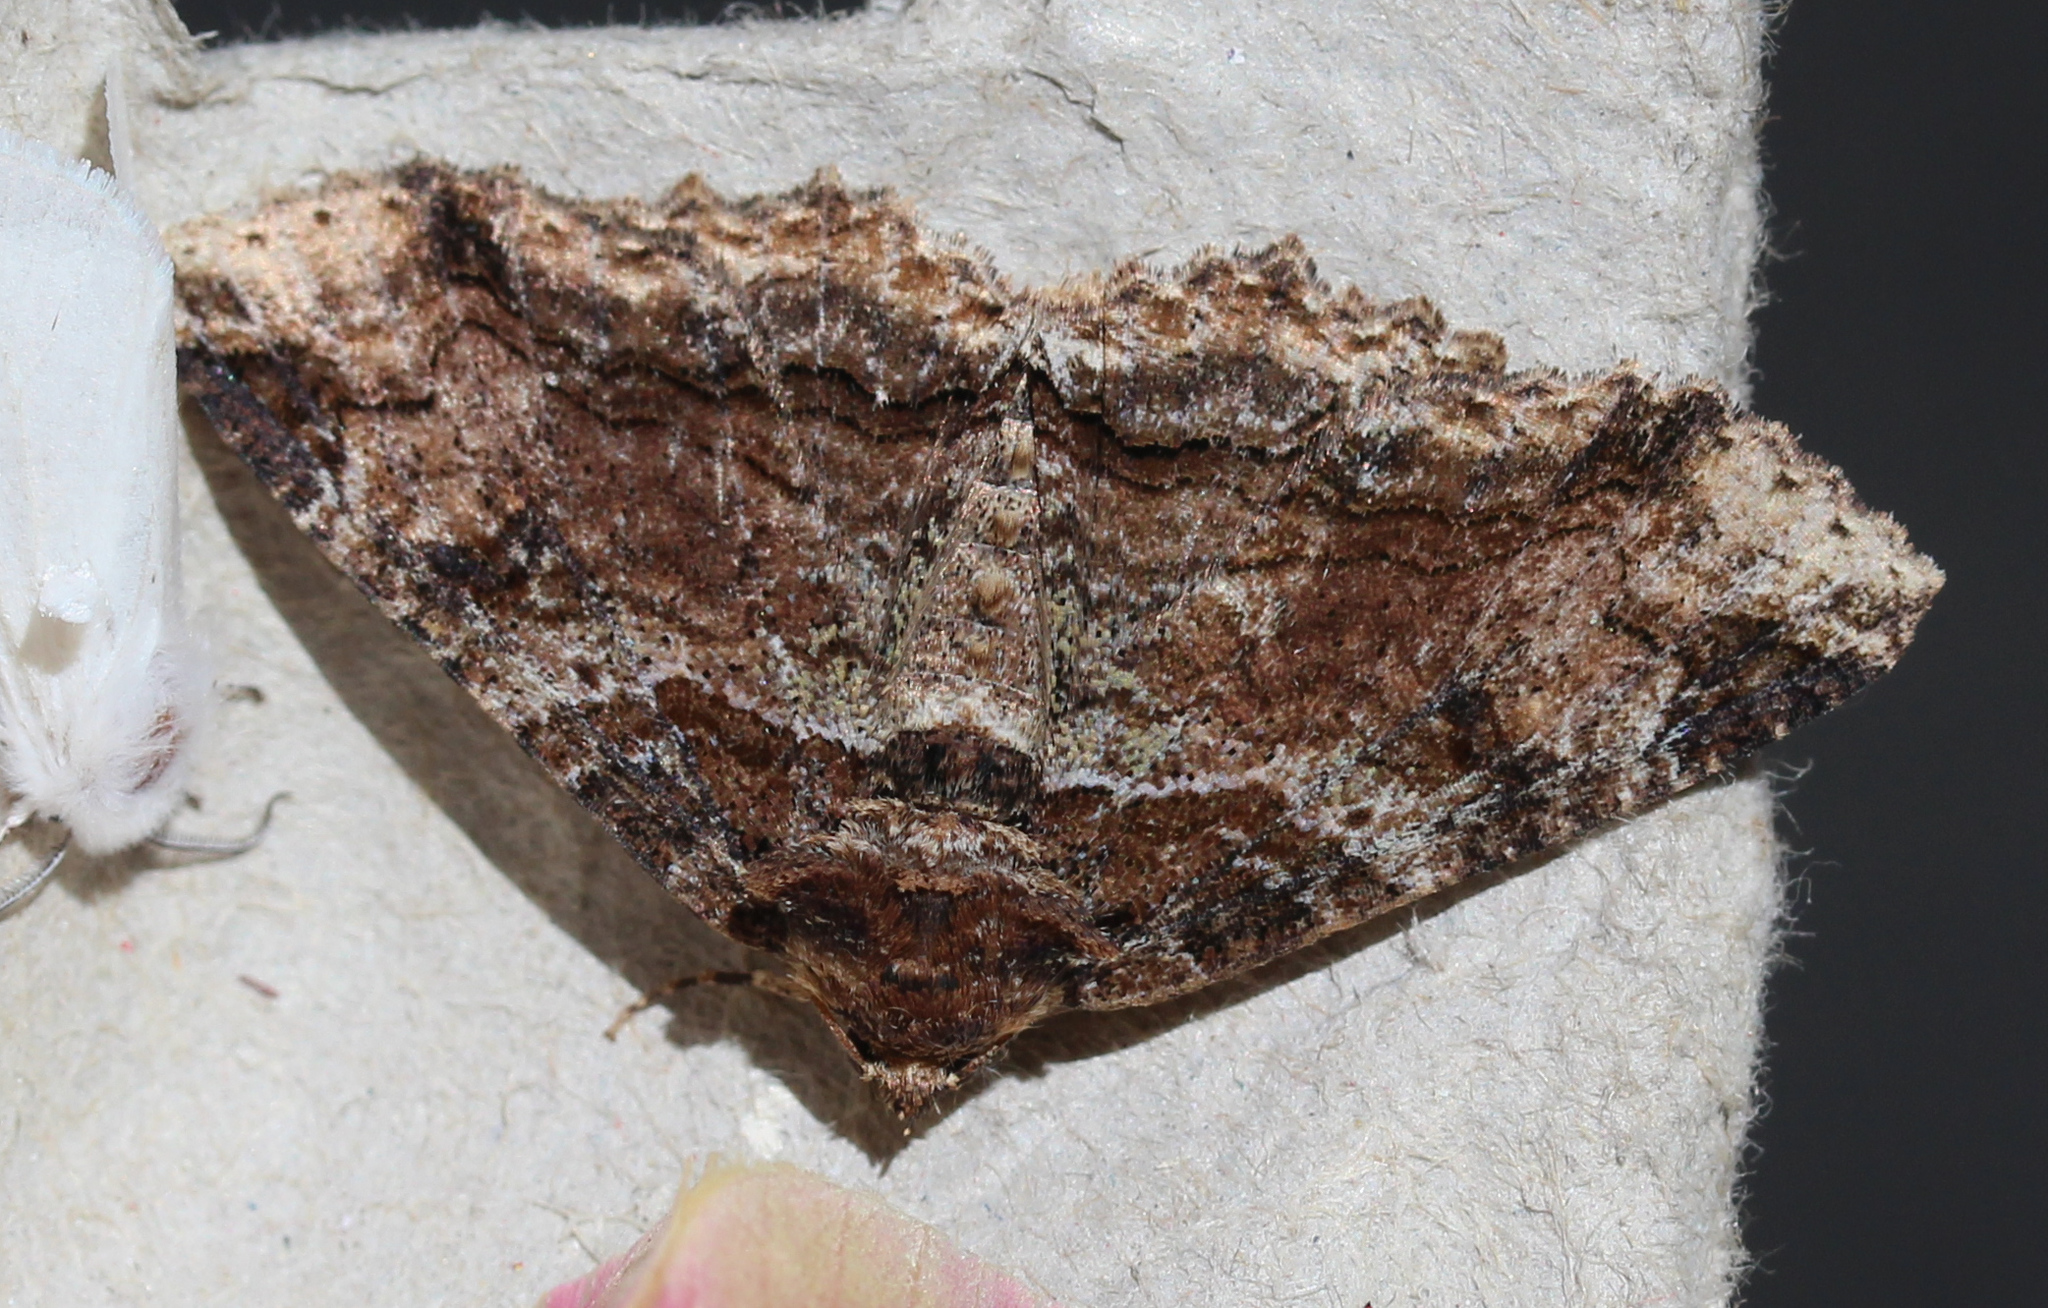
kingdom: Animalia
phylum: Arthropoda
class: Insecta
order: Lepidoptera
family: Erebidae
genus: Zale
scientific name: Zale minerea
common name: Colorful zale moth
